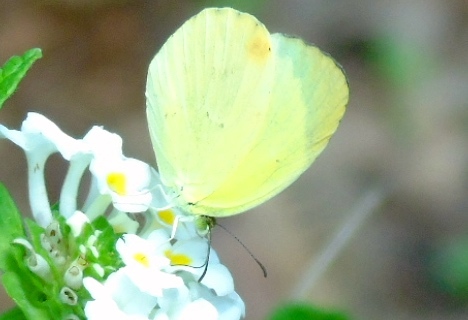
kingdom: Animalia
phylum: Arthropoda
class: Insecta
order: Lepidoptera
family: Pieridae
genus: Eurema
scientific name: Eurema
